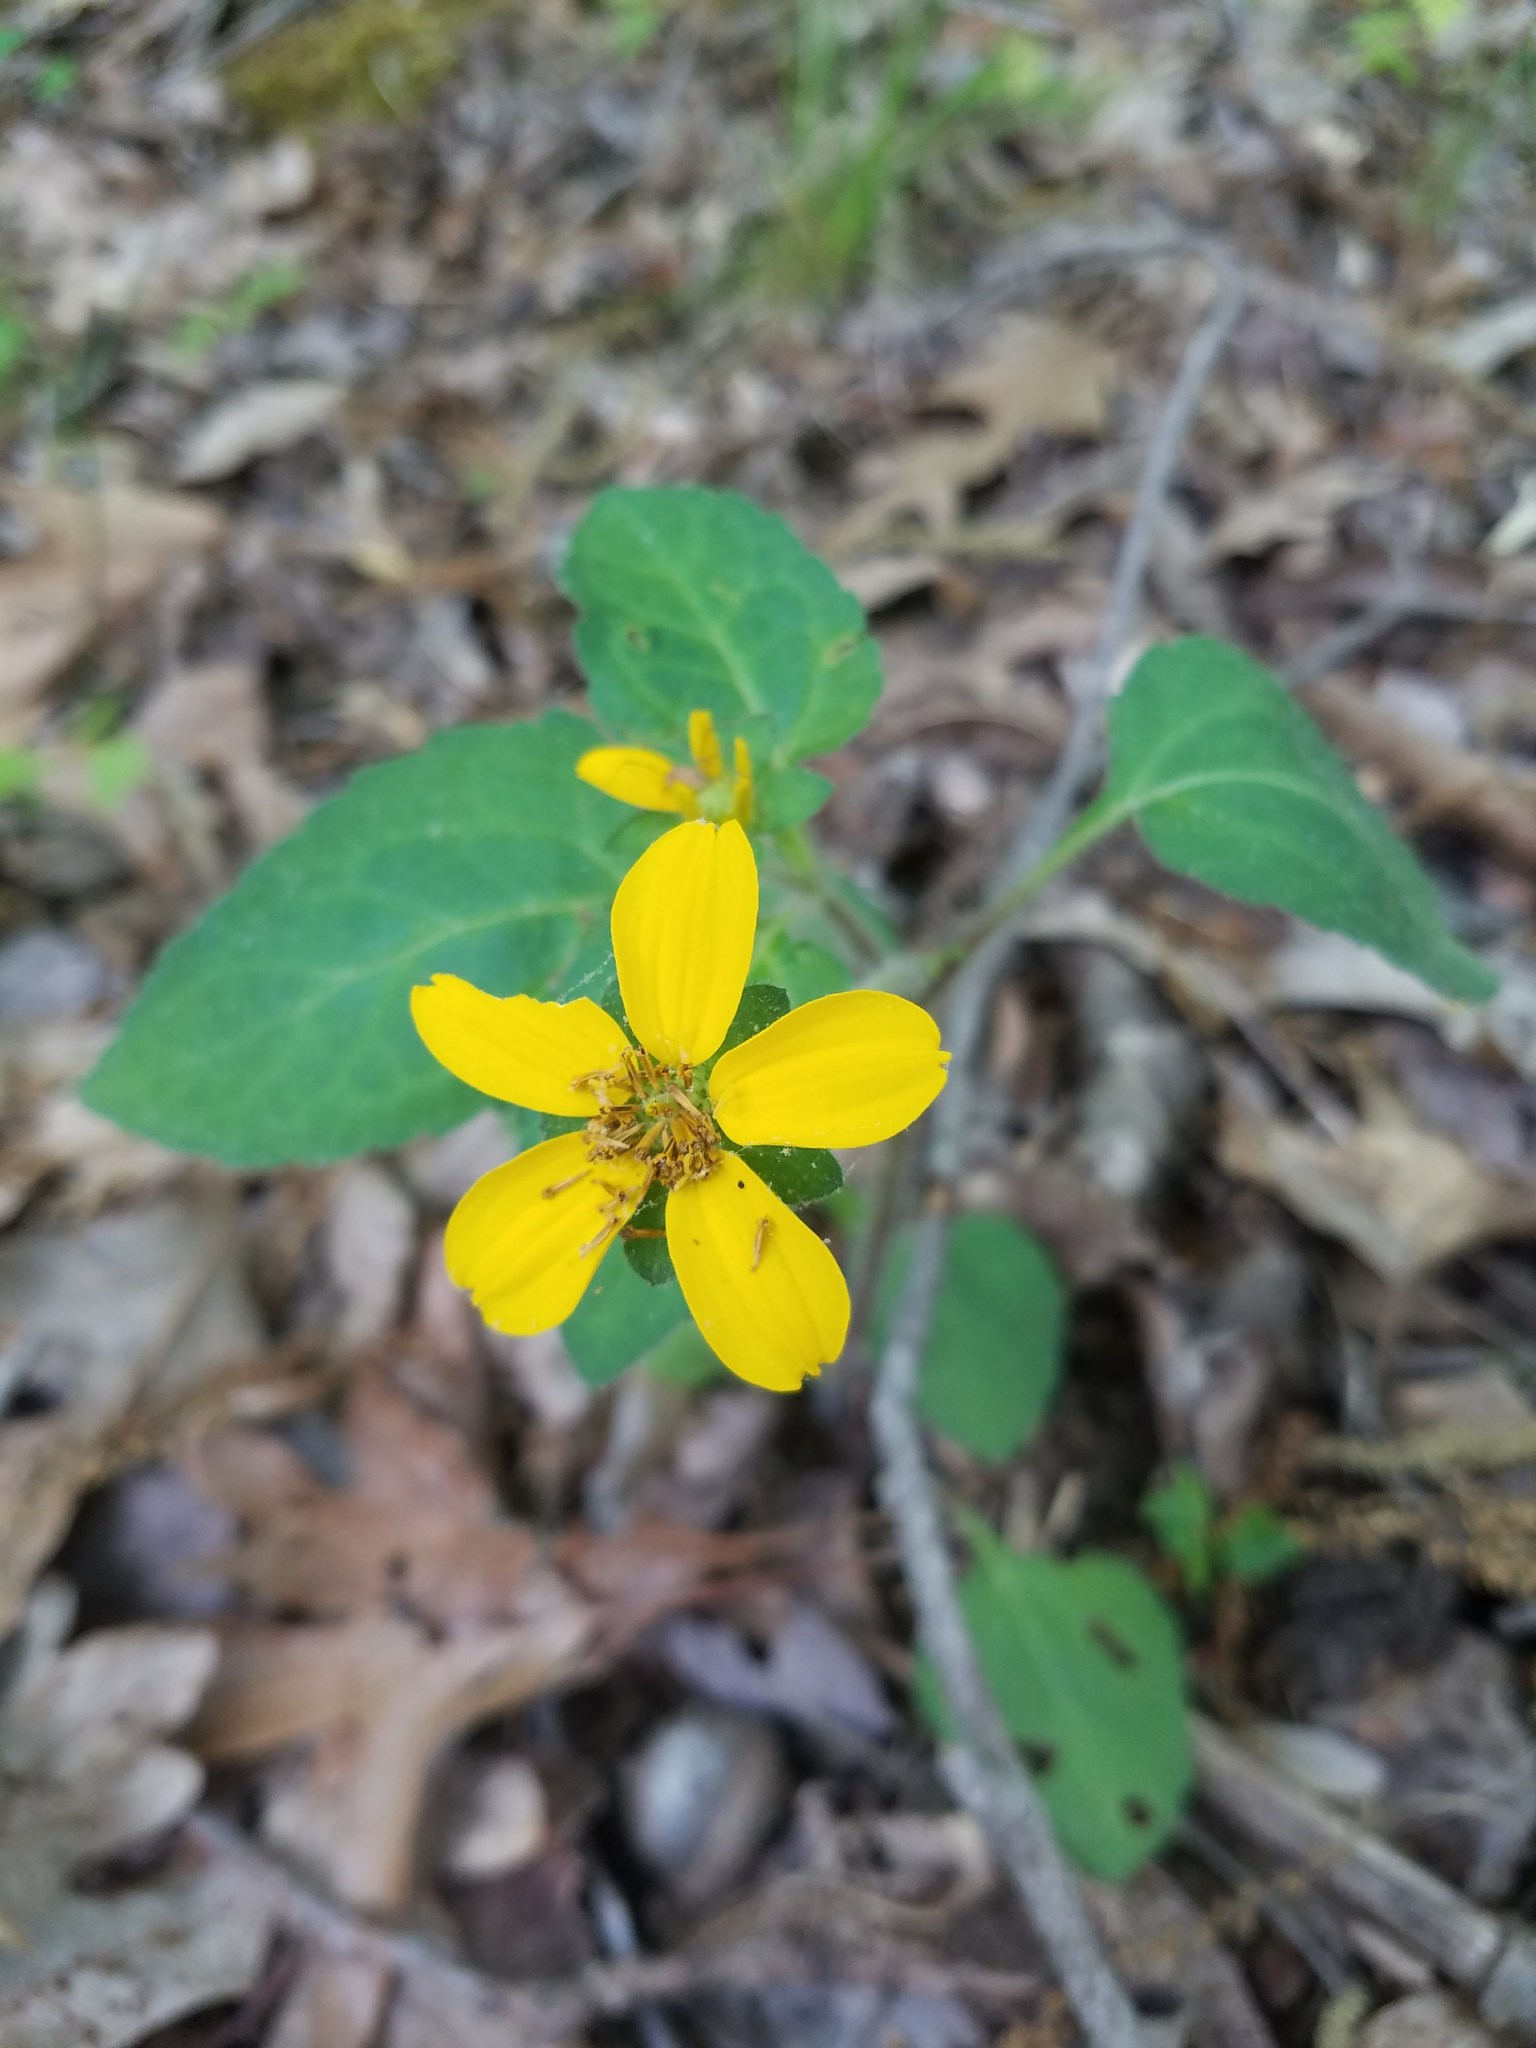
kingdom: Plantae
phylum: Tracheophyta
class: Magnoliopsida
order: Asterales
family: Asteraceae
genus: Chrysogonum
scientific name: Chrysogonum virginianum
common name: Golden-knee
